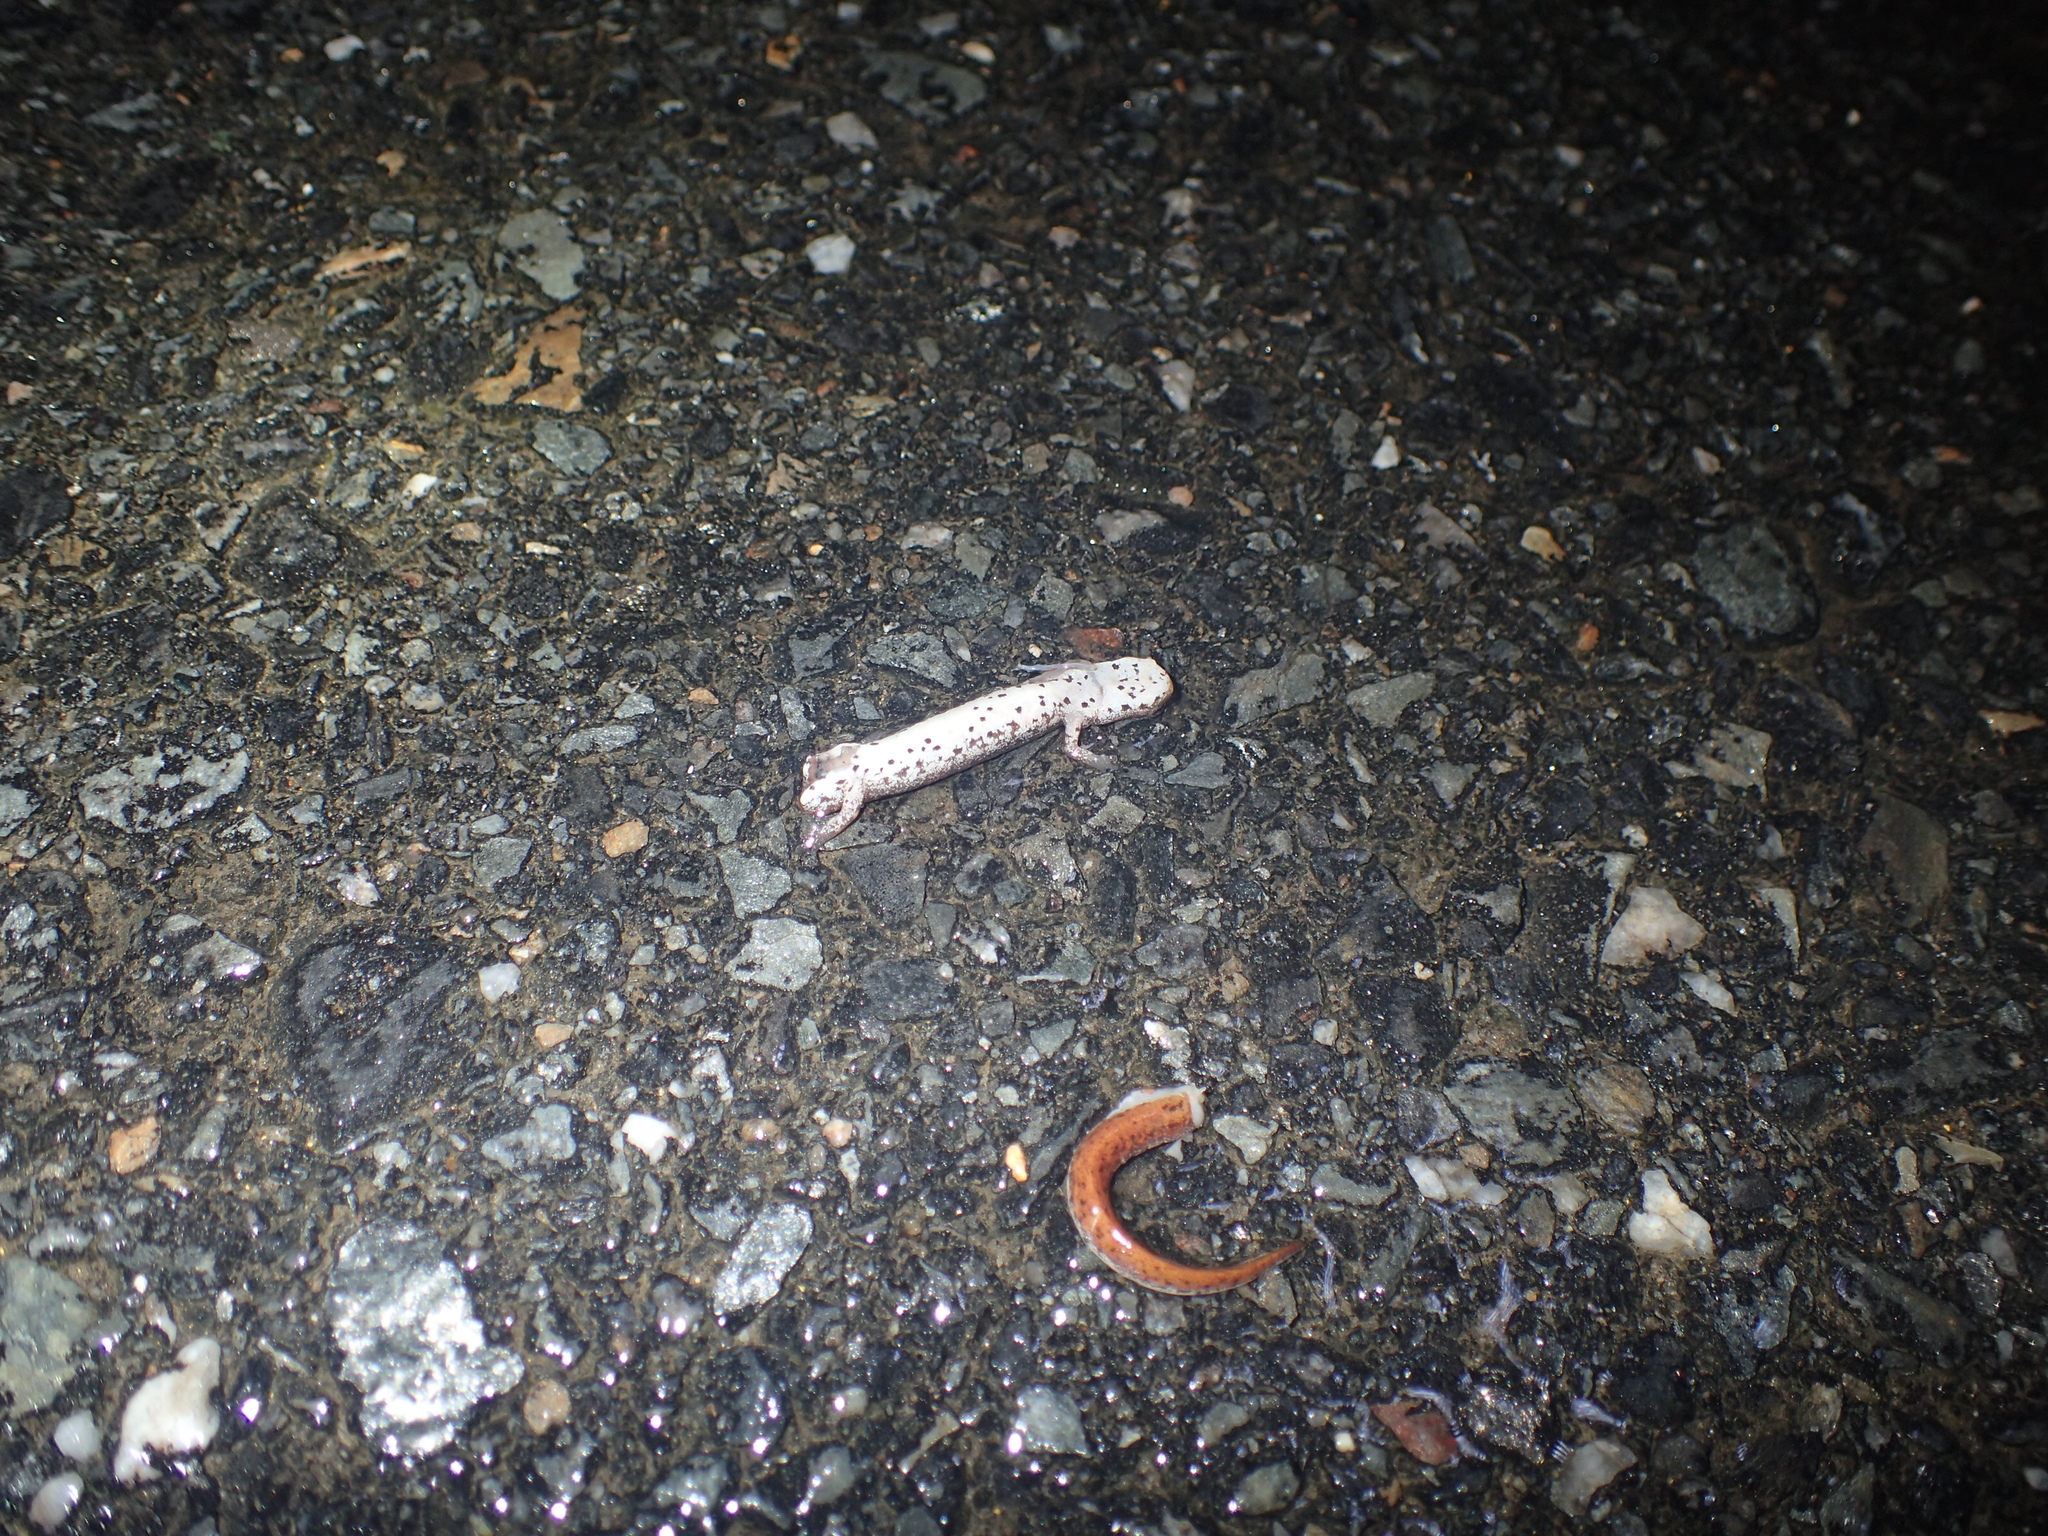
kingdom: Animalia
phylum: Chordata
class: Amphibia
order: Caudata
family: Plethodontidae
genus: Hemidactylium
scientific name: Hemidactylium scutatum
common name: Four-toed salamander
